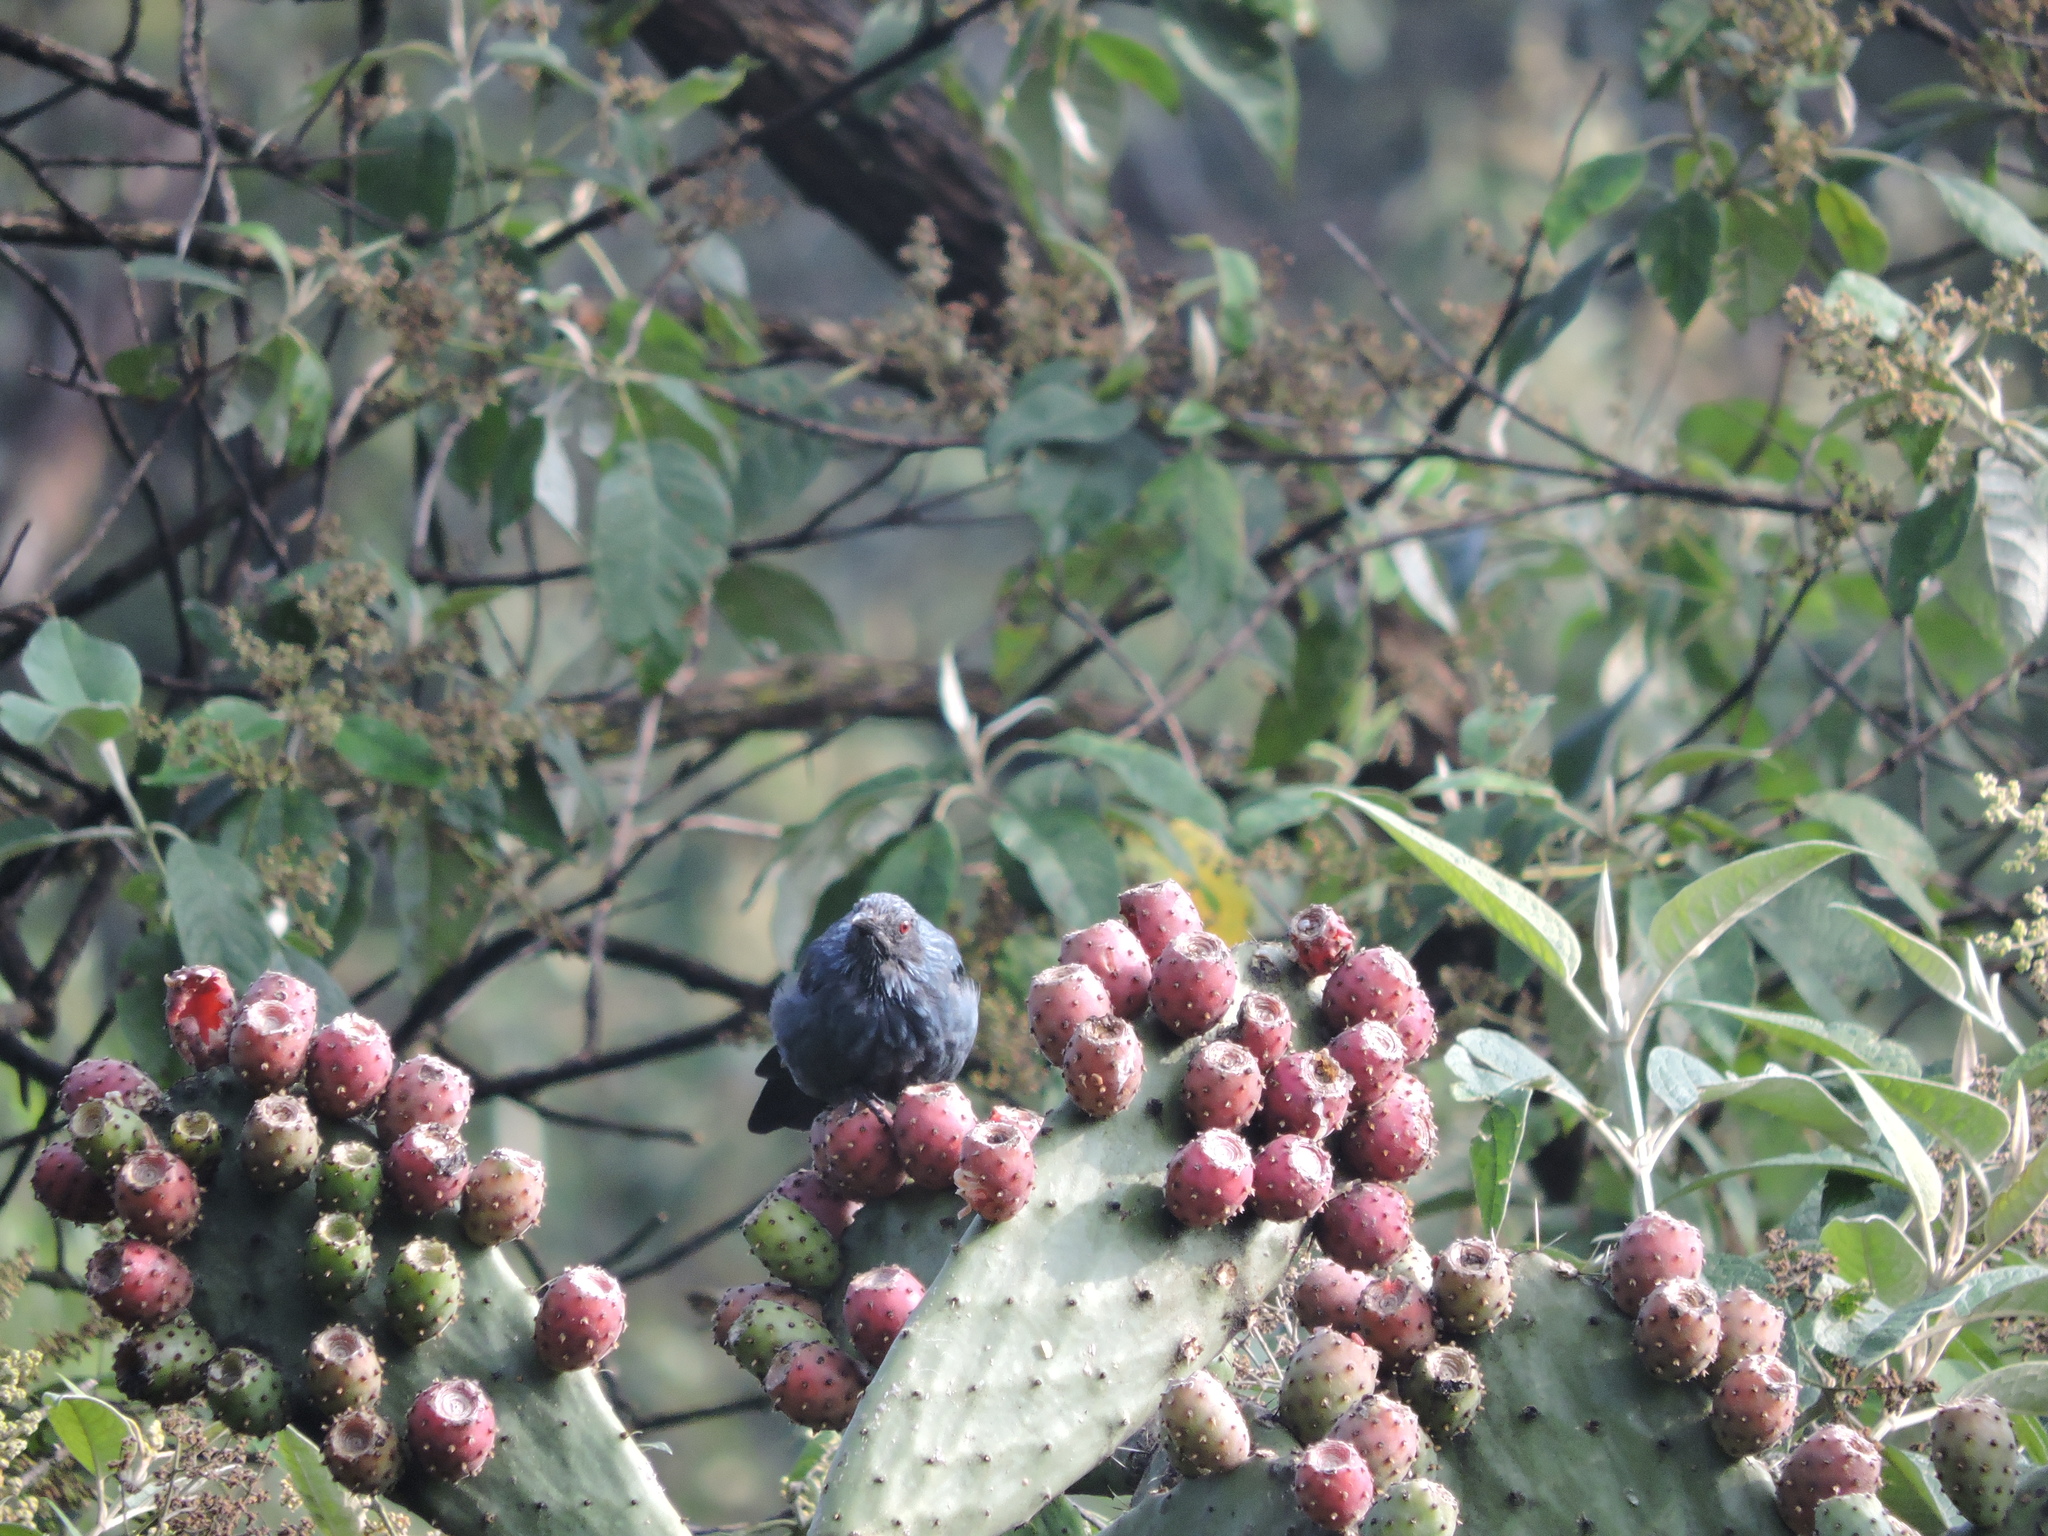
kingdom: Animalia
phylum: Chordata
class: Aves
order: Passeriformes
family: Mimidae
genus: Melanotis
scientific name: Melanotis caerulescens
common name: Blue mockingbird
